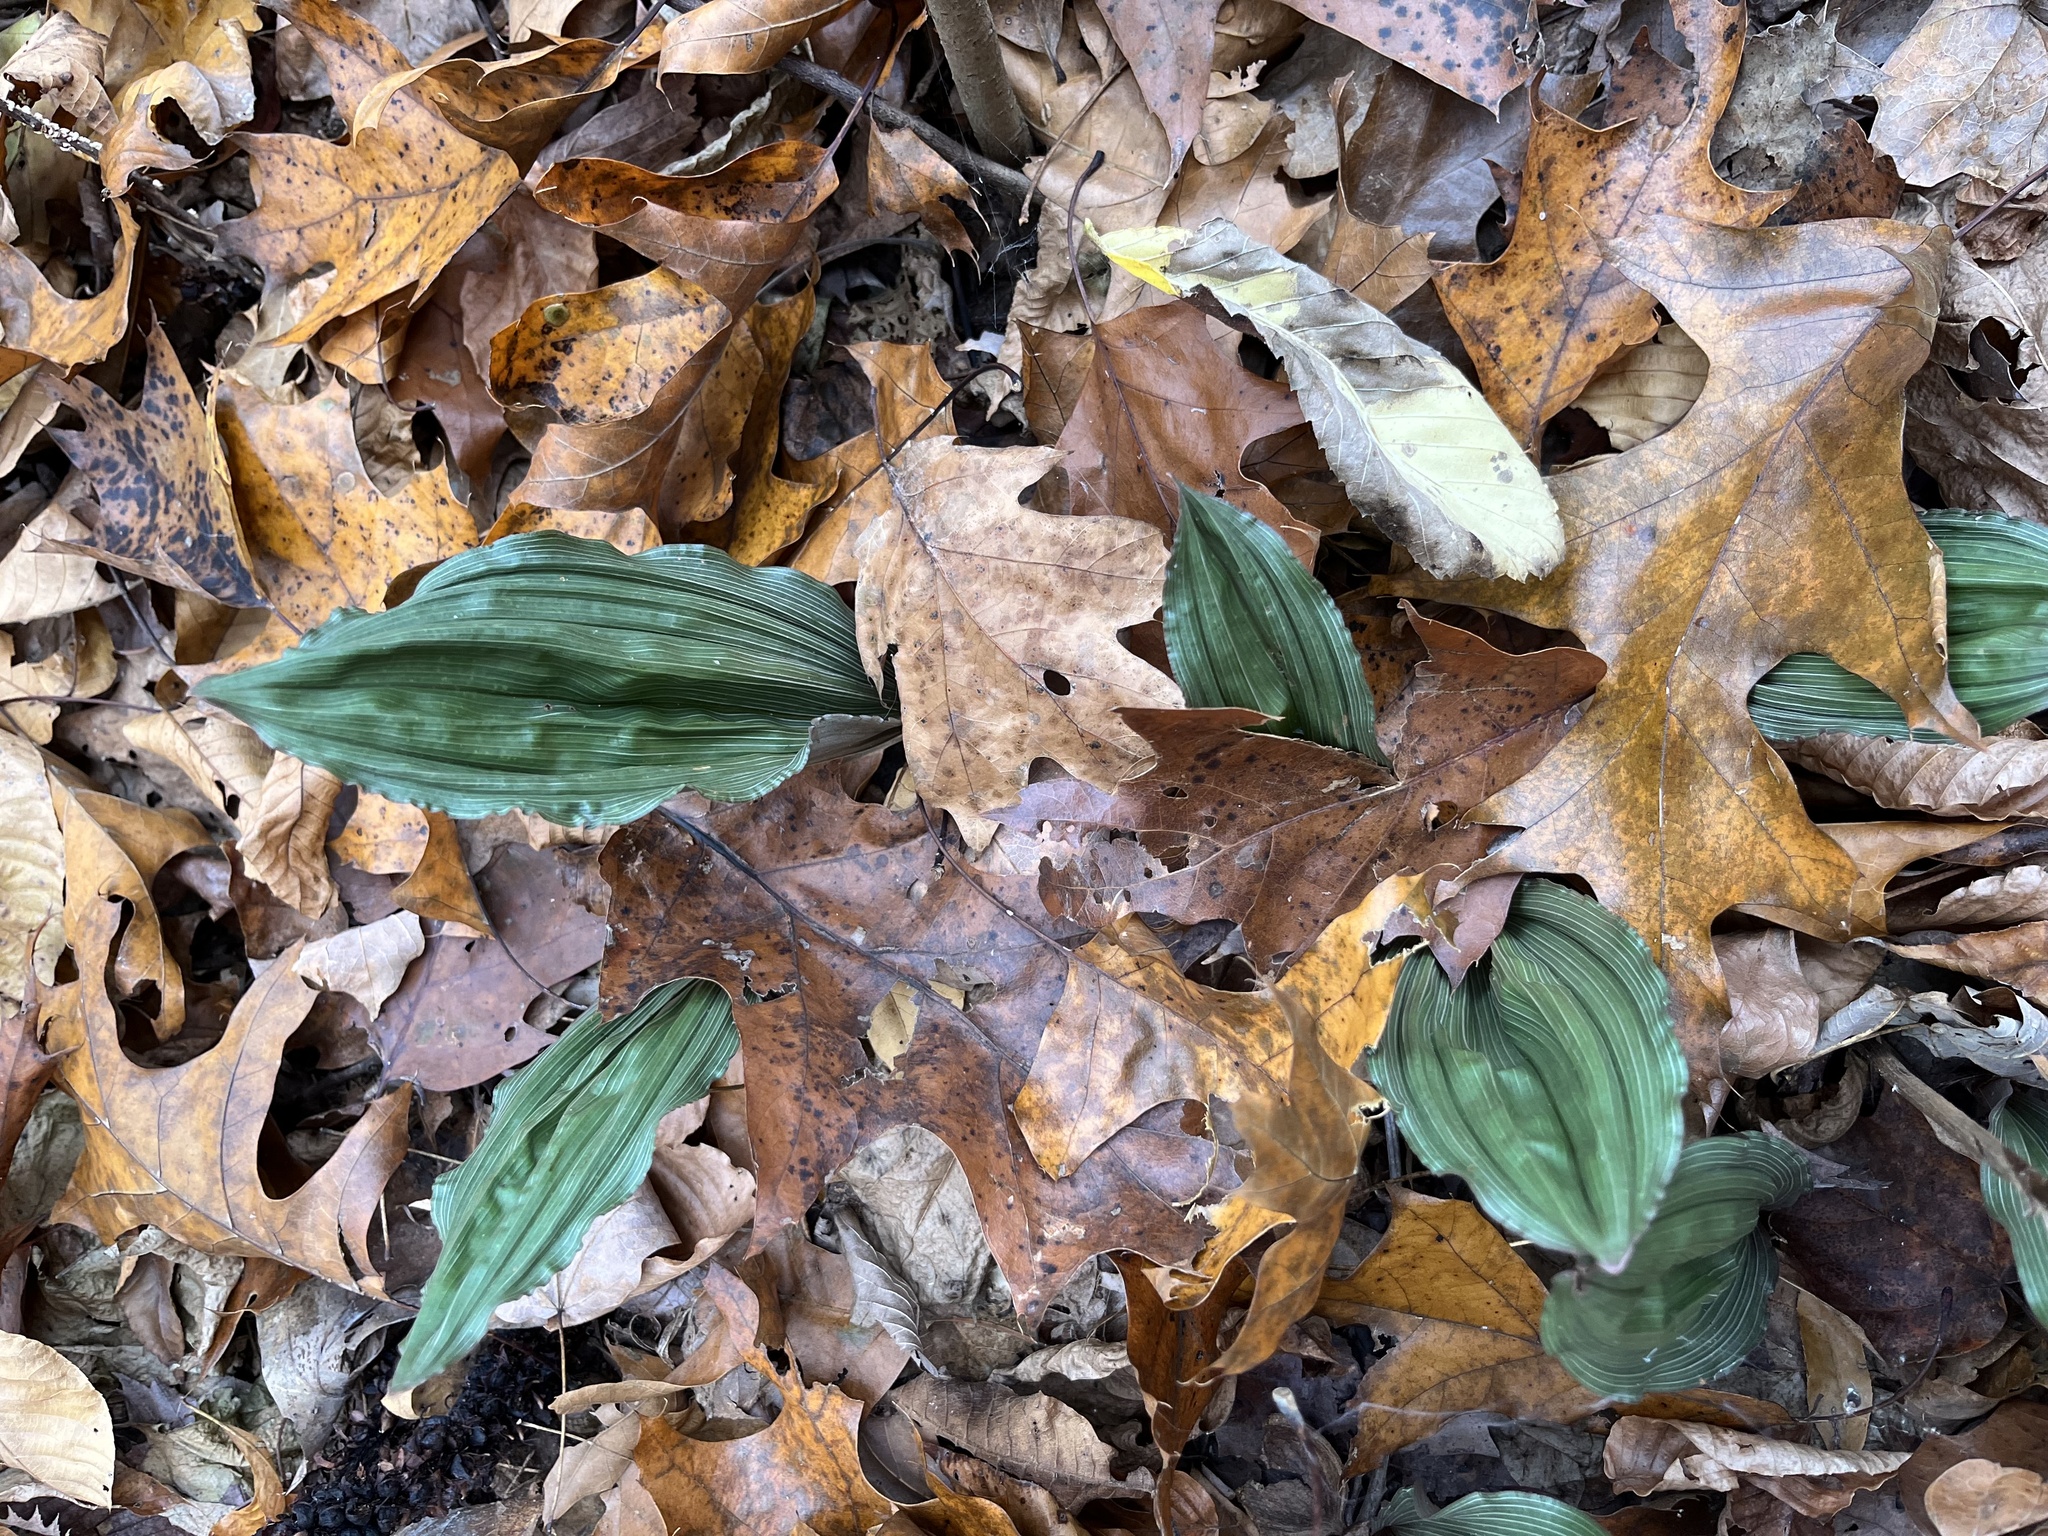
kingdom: Plantae
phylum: Tracheophyta
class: Liliopsida
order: Asparagales
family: Orchidaceae
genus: Aplectrum
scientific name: Aplectrum hyemale
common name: Adam-and-eve
